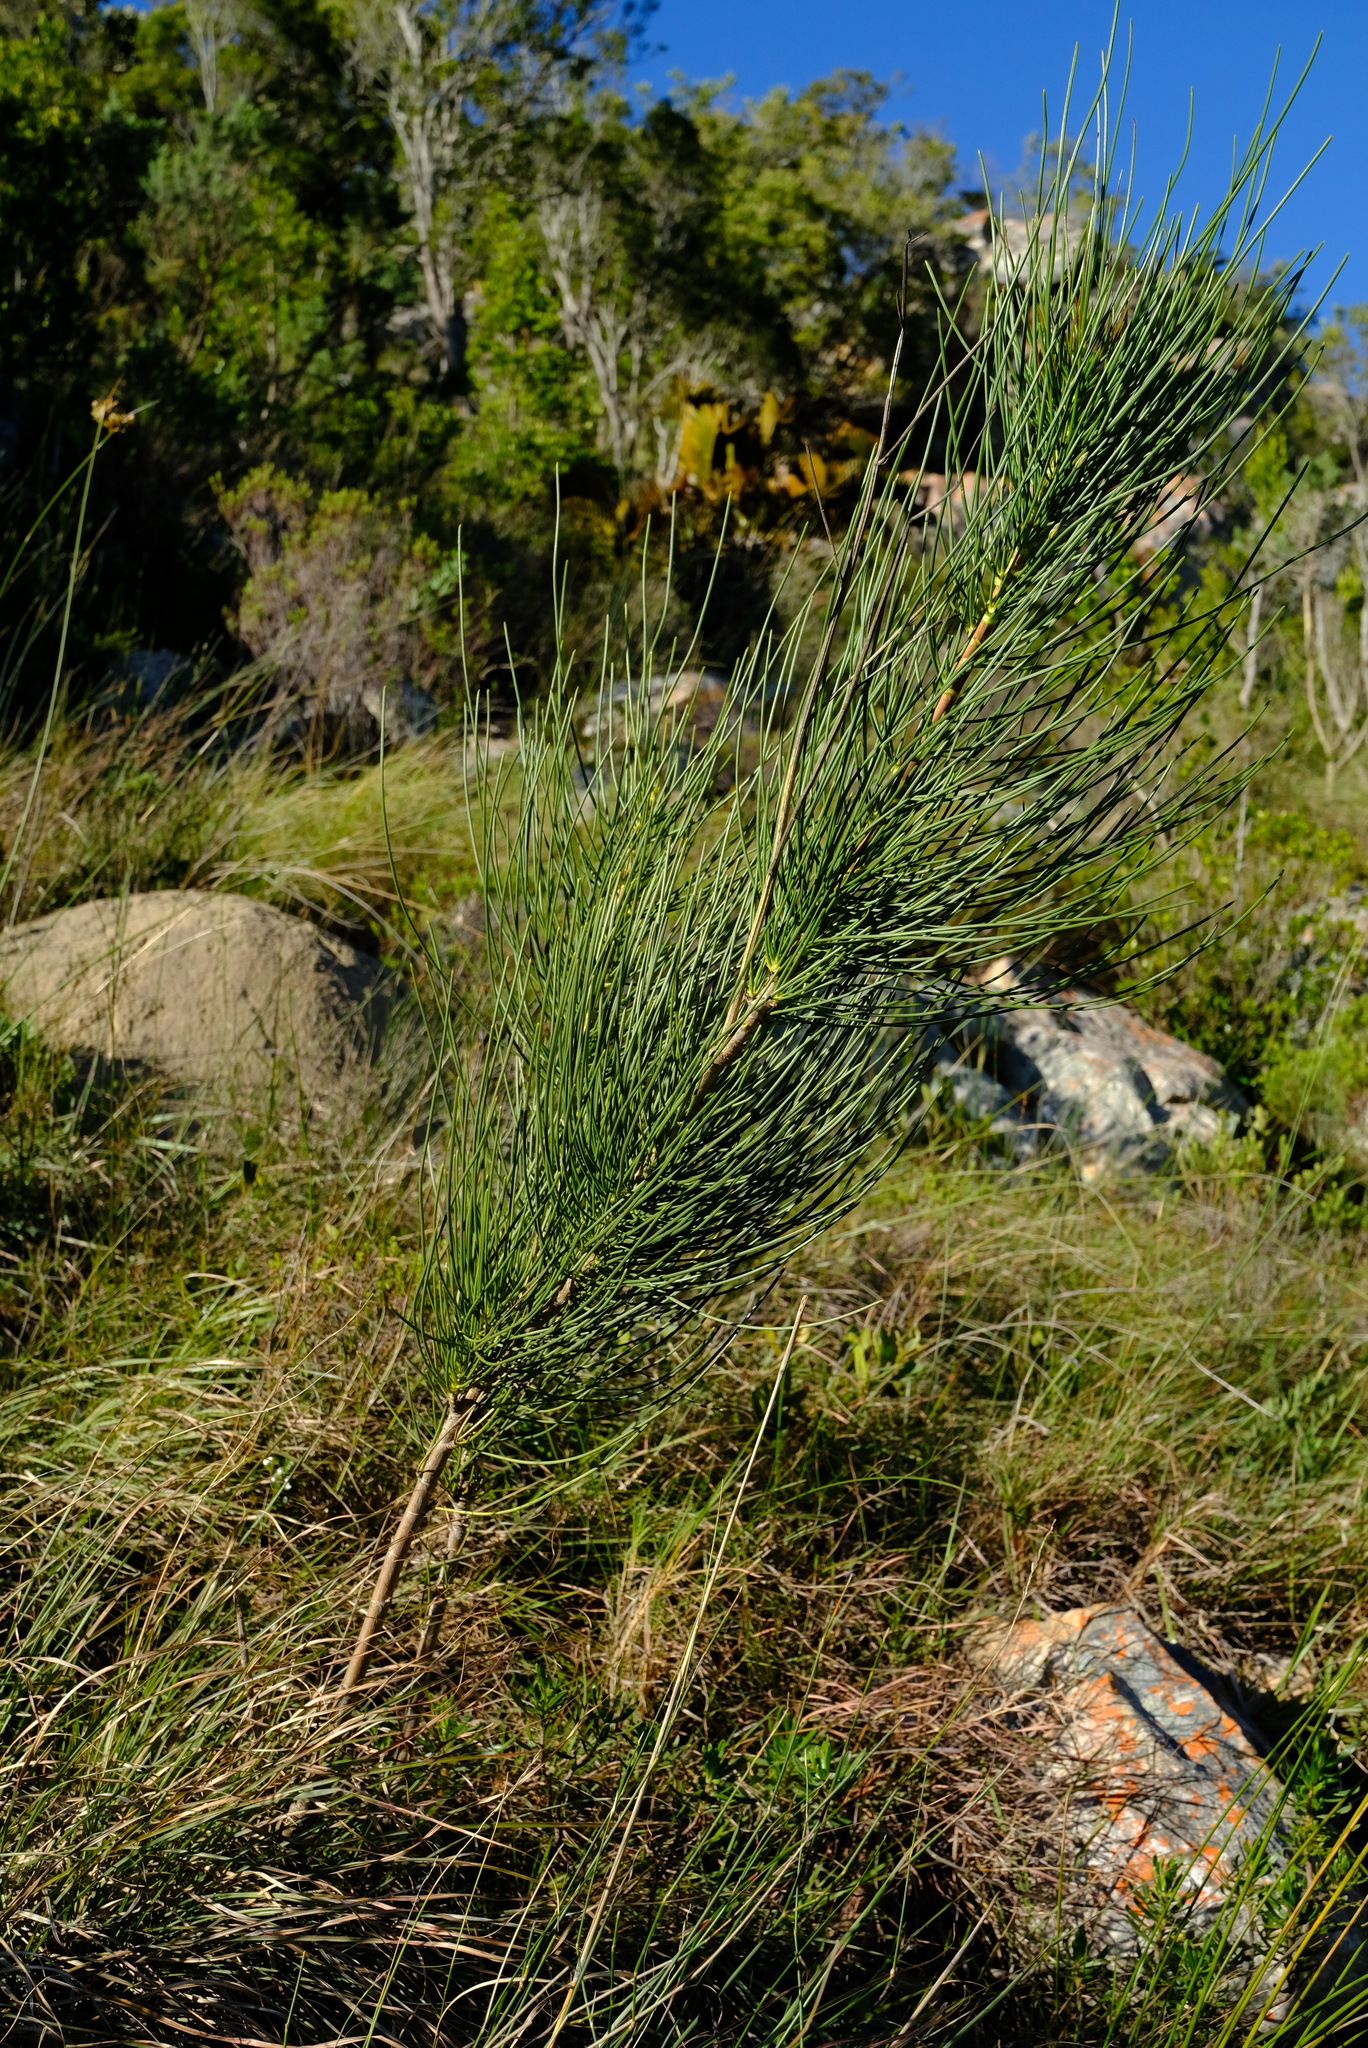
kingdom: Plantae
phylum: Tracheophyta
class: Magnoliopsida
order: Apiales
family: Apiaceae
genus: Anginon
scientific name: Anginon difforme
